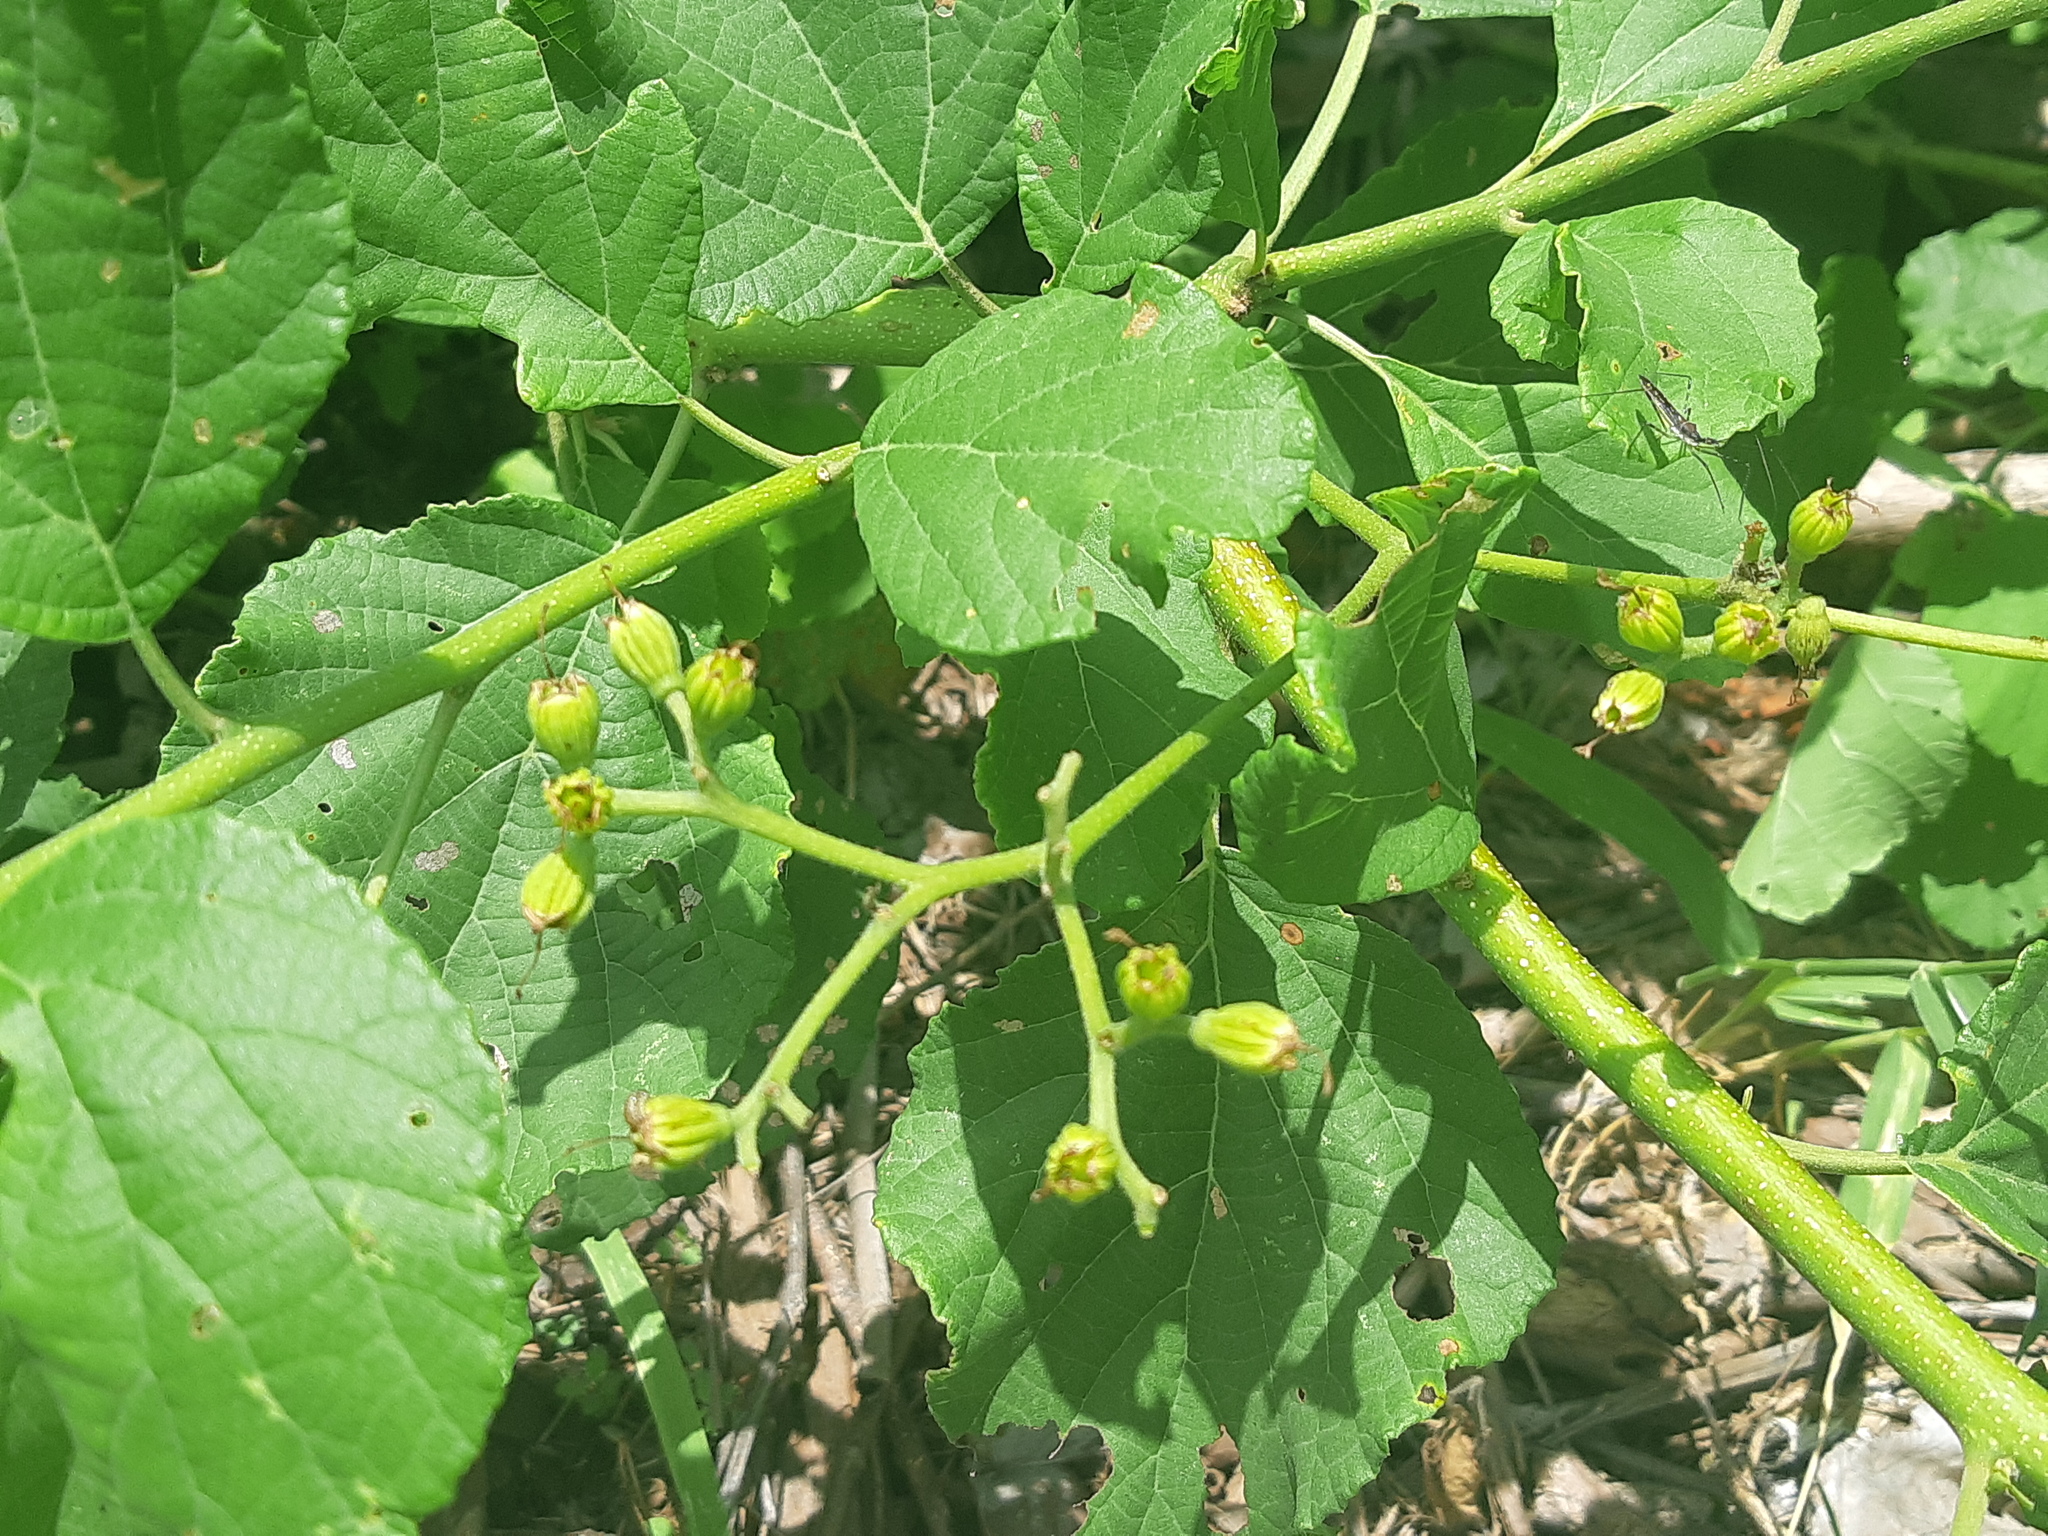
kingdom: Plantae
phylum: Tracheophyta
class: Magnoliopsida
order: Boraginales
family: Cordiaceae
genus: Cordia
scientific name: Cordia lutea
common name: Yellow geiger
